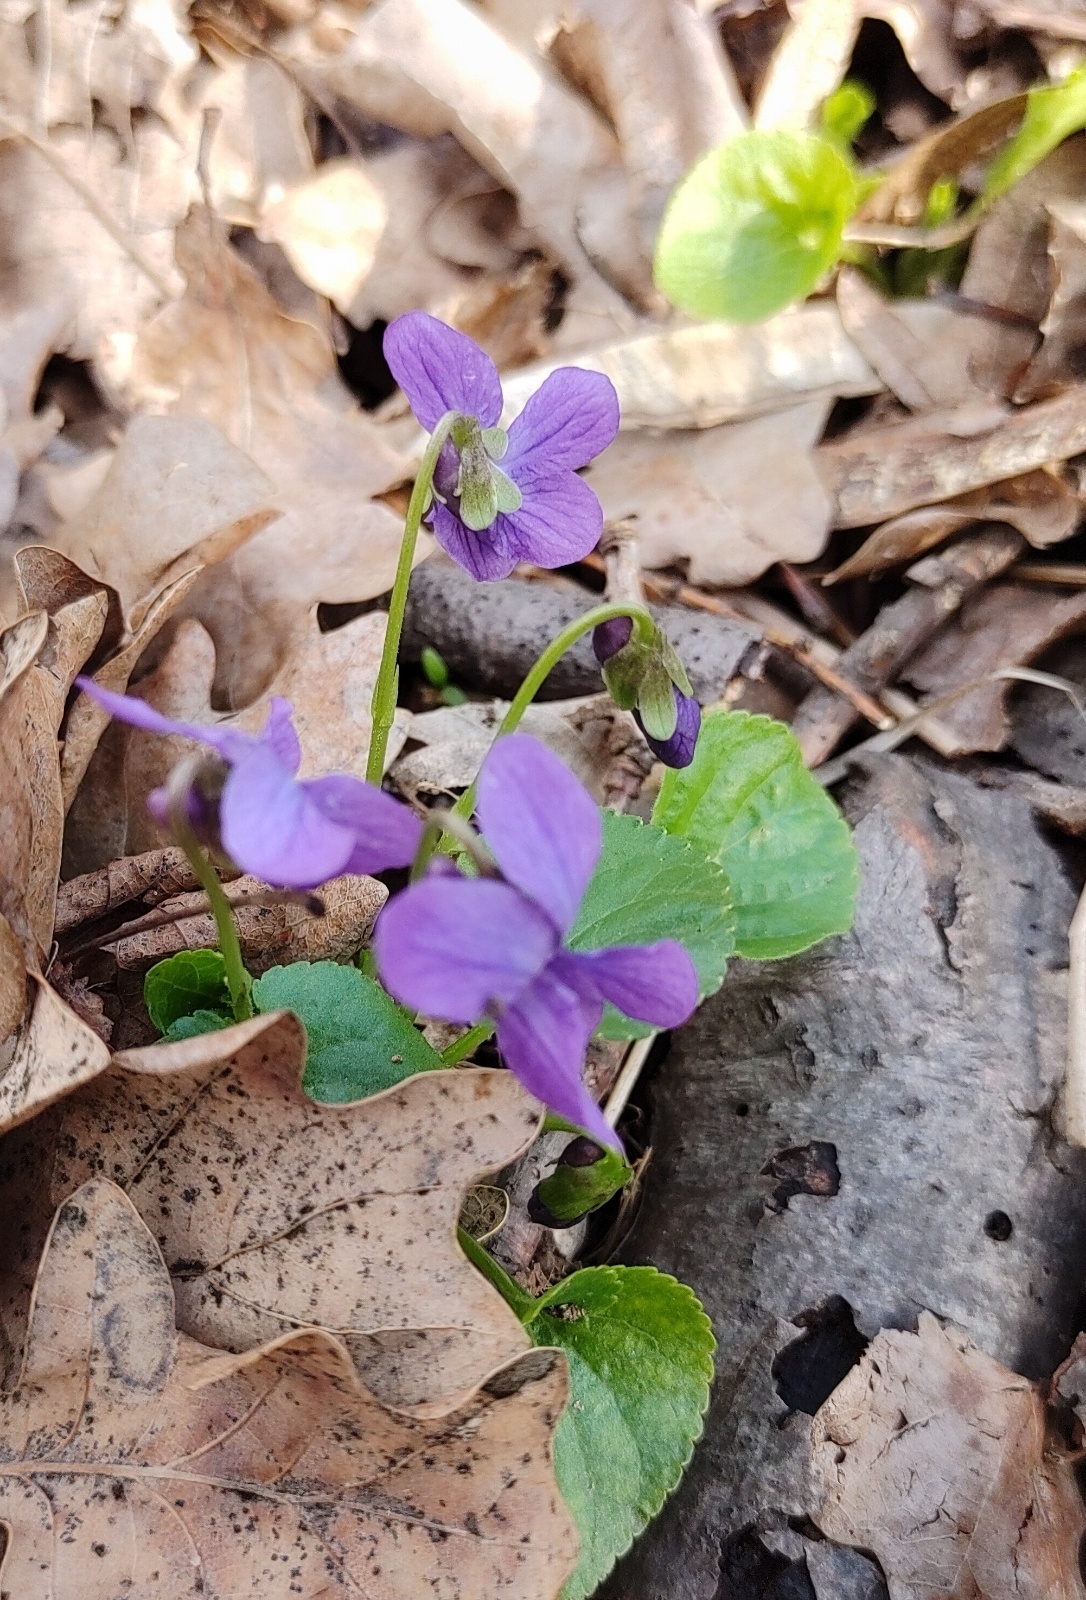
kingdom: Plantae
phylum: Tracheophyta
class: Magnoliopsida
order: Malpighiales
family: Violaceae
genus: Viola
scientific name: Viola odorata
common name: Sweet violet
